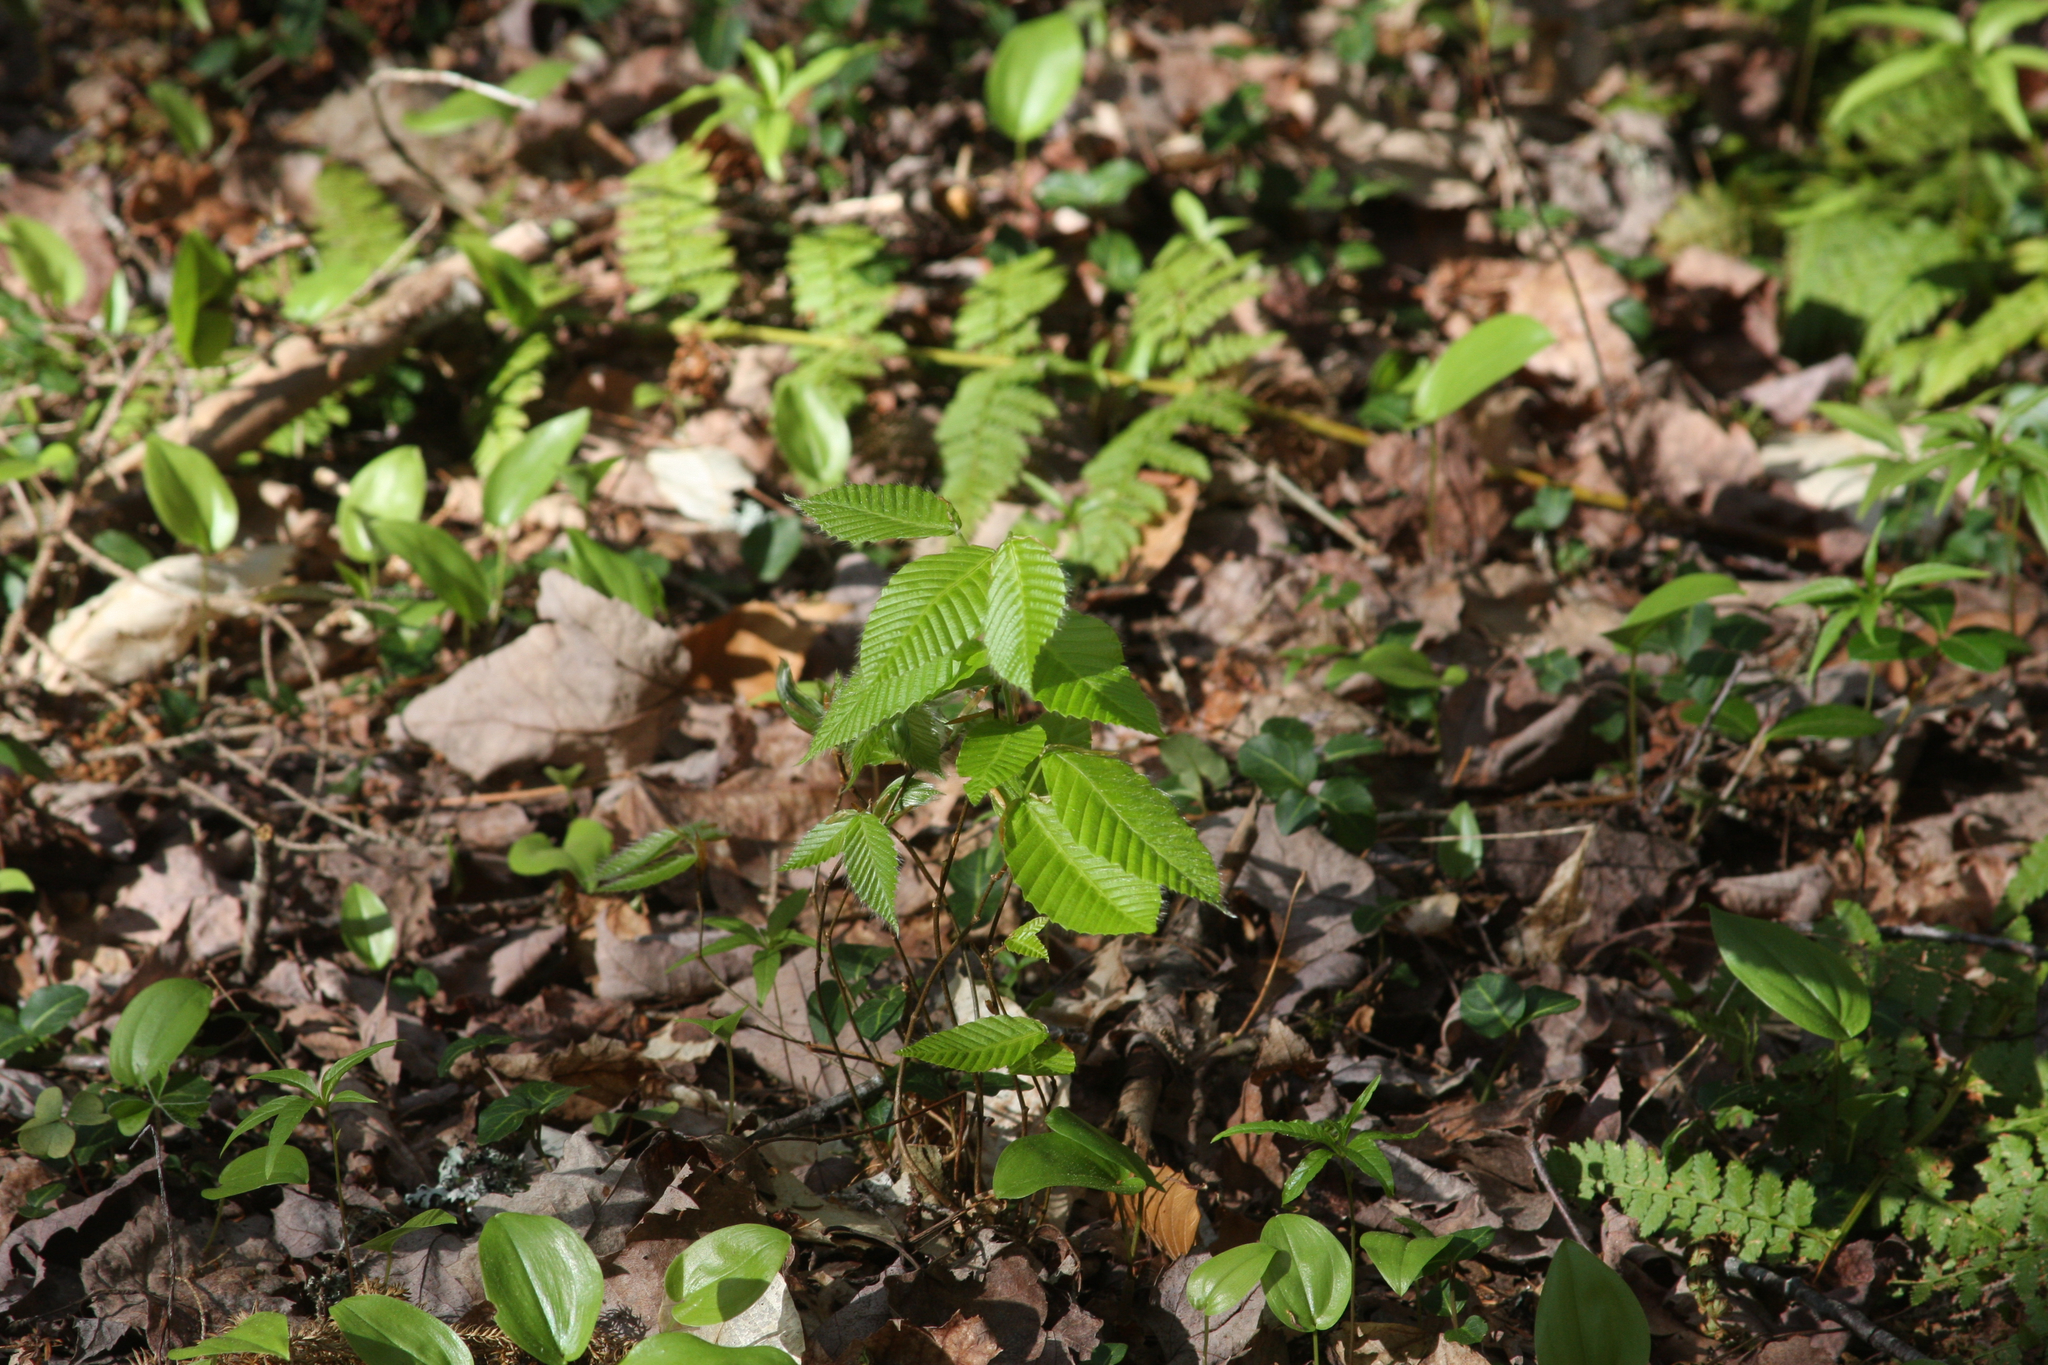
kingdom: Plantae
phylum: Tracheophyta
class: Liliopsida
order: Asparagales
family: Asparagaceae
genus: Maianthemum
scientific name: Maianthemum canadense
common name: False lily-of-the-valley
